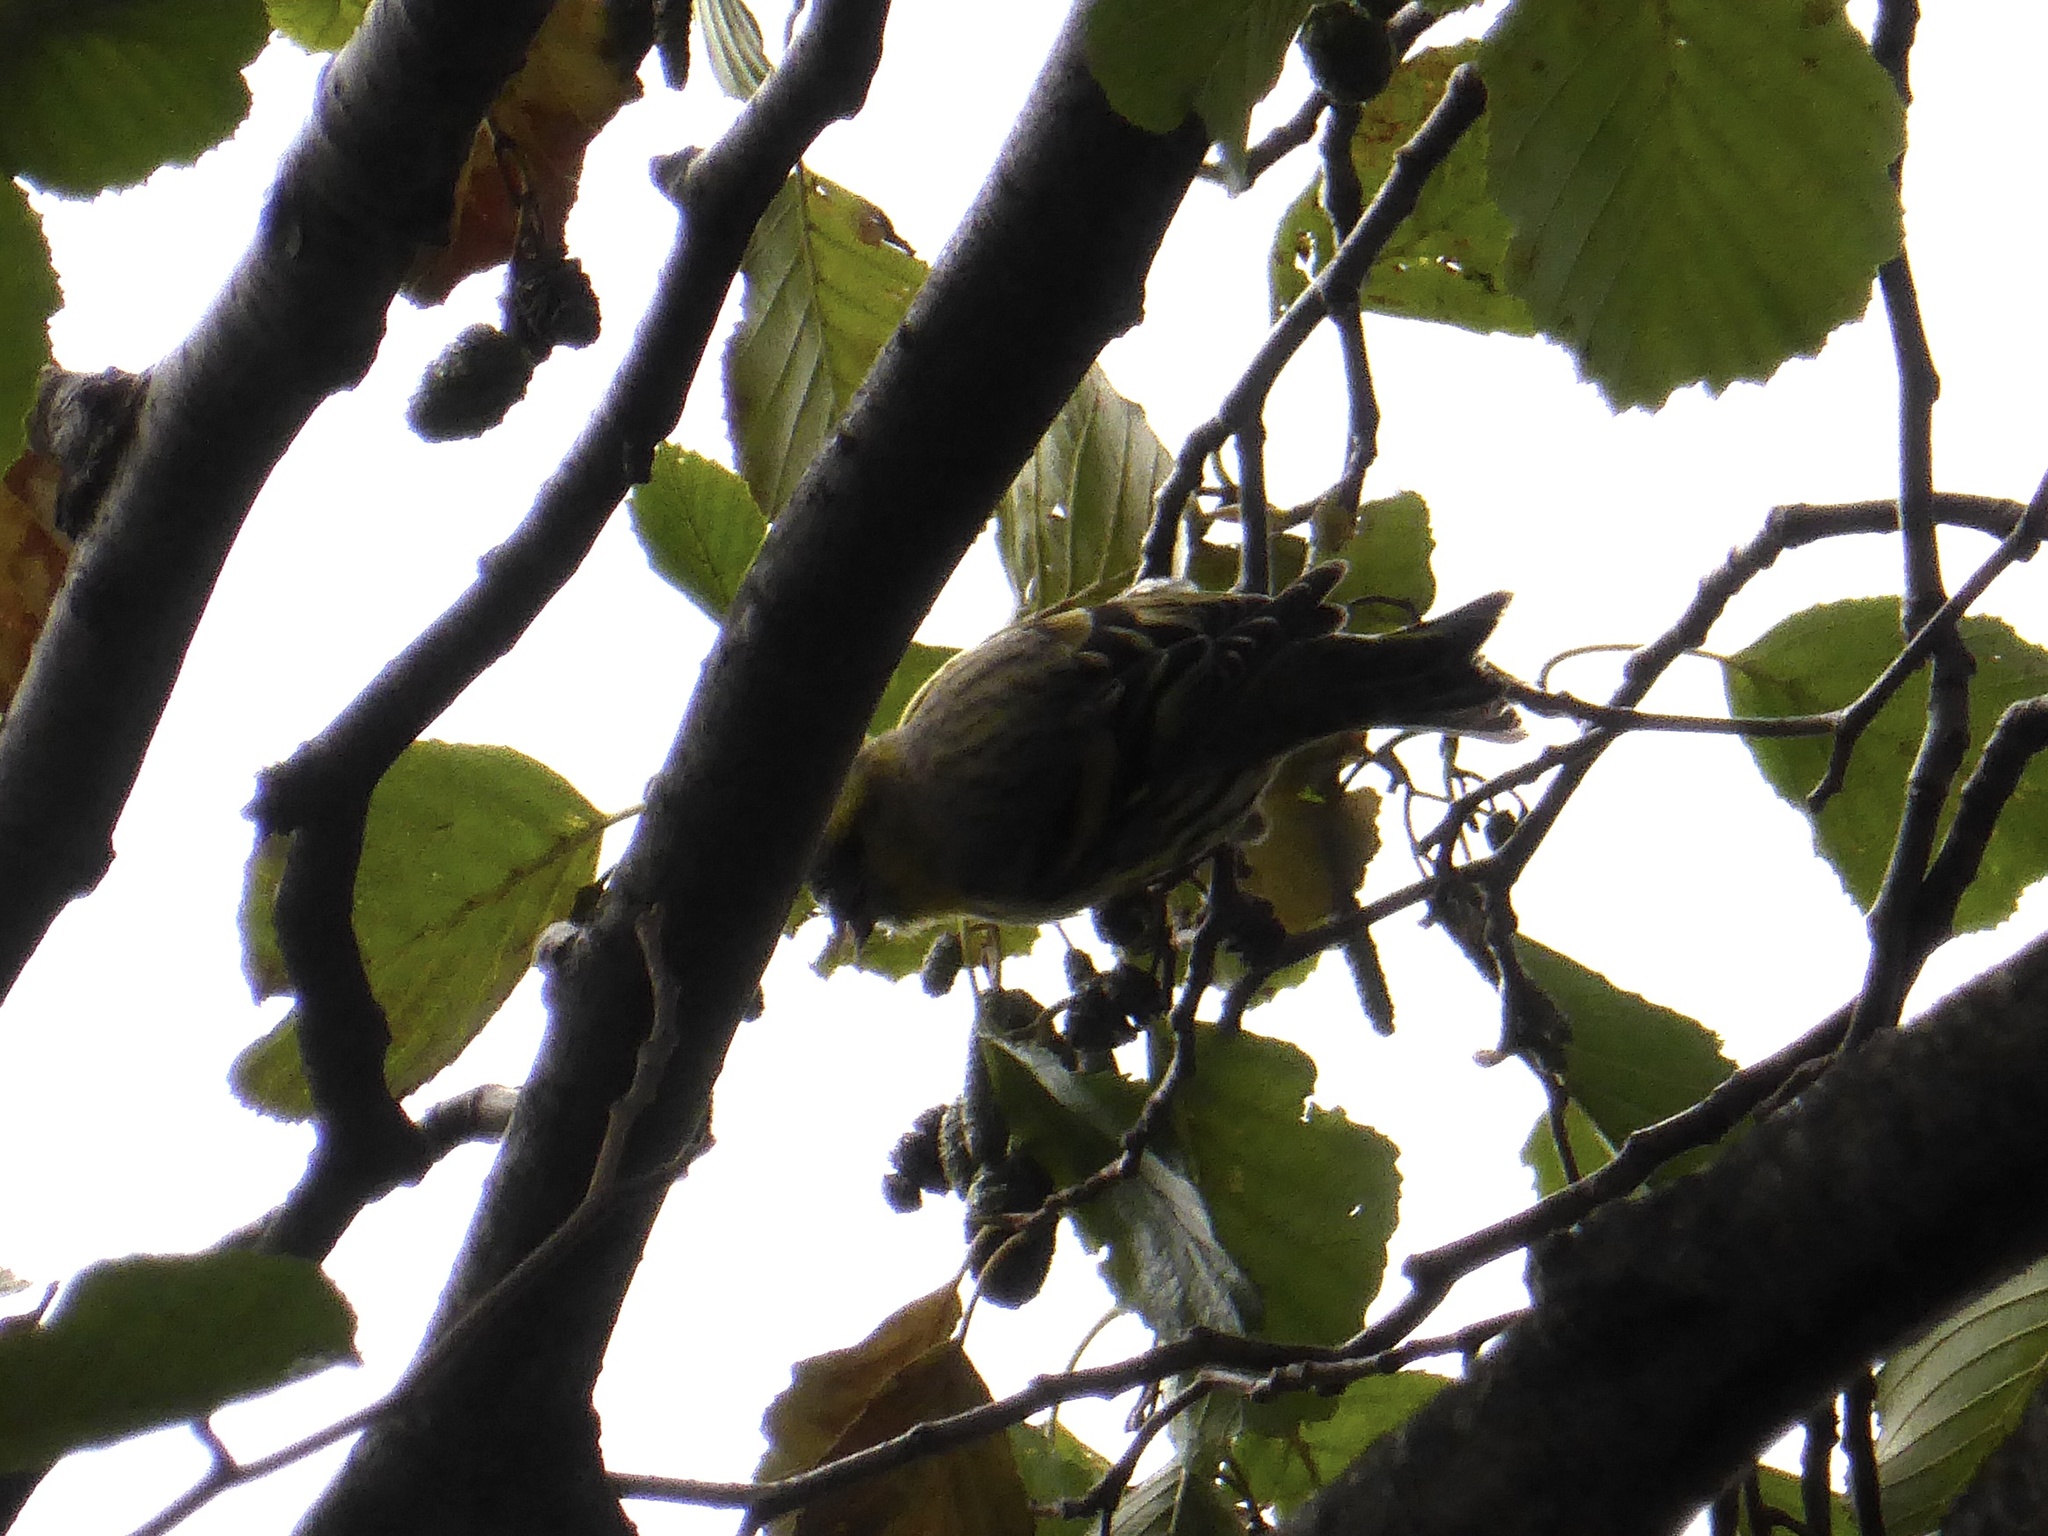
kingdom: Animalia
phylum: Chordata
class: Aves
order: Passeriformes
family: Fringillidae
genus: Spinus
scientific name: Spinus spinus
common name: Eurasian siskin
